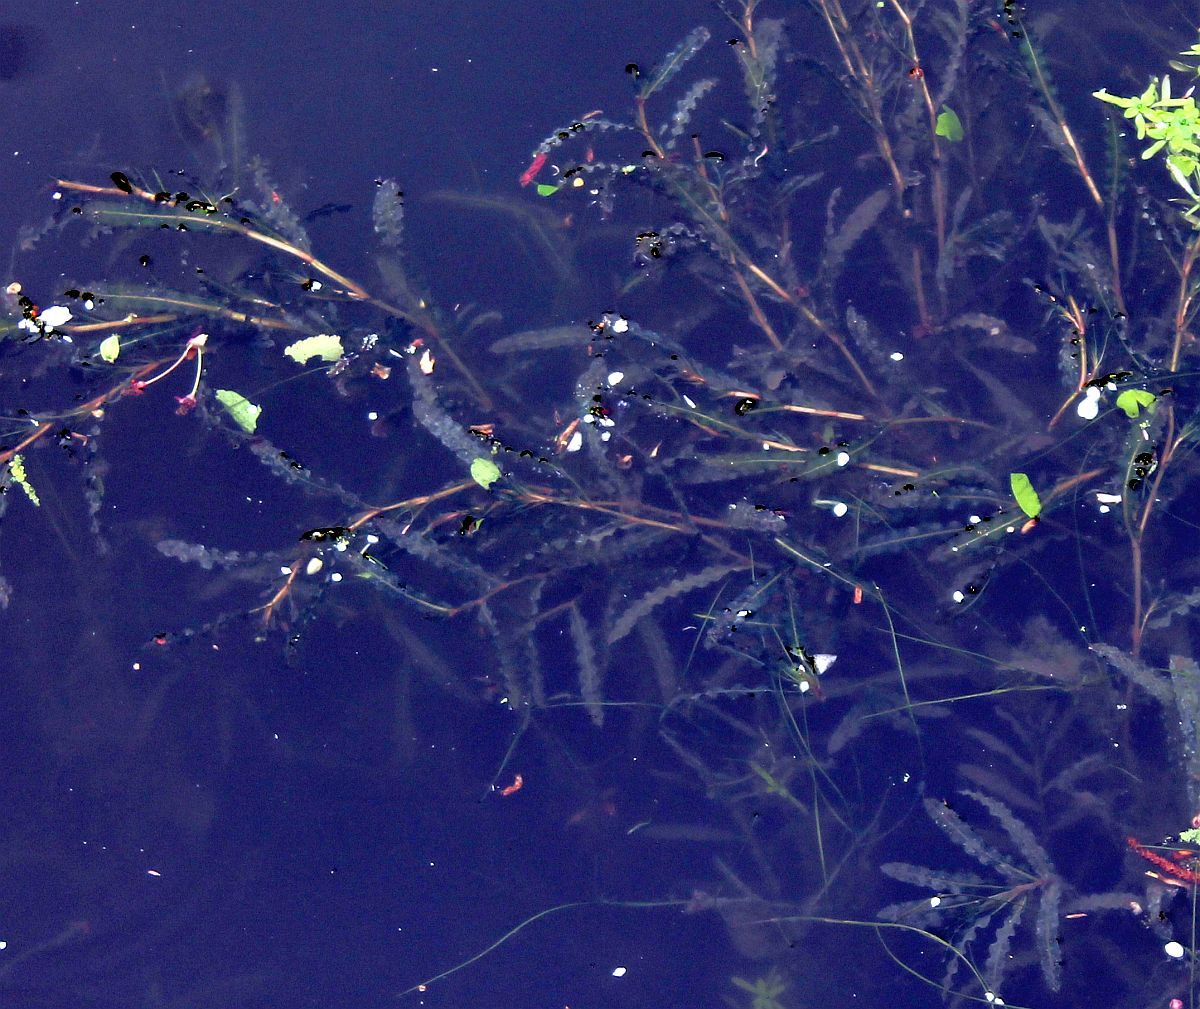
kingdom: Plantae
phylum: Tracheophyta
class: Liliopsida
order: Alismatales
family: Potamogetonaceae
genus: Potamogeton
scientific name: Potamogeton crispus
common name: Curled pondweed
